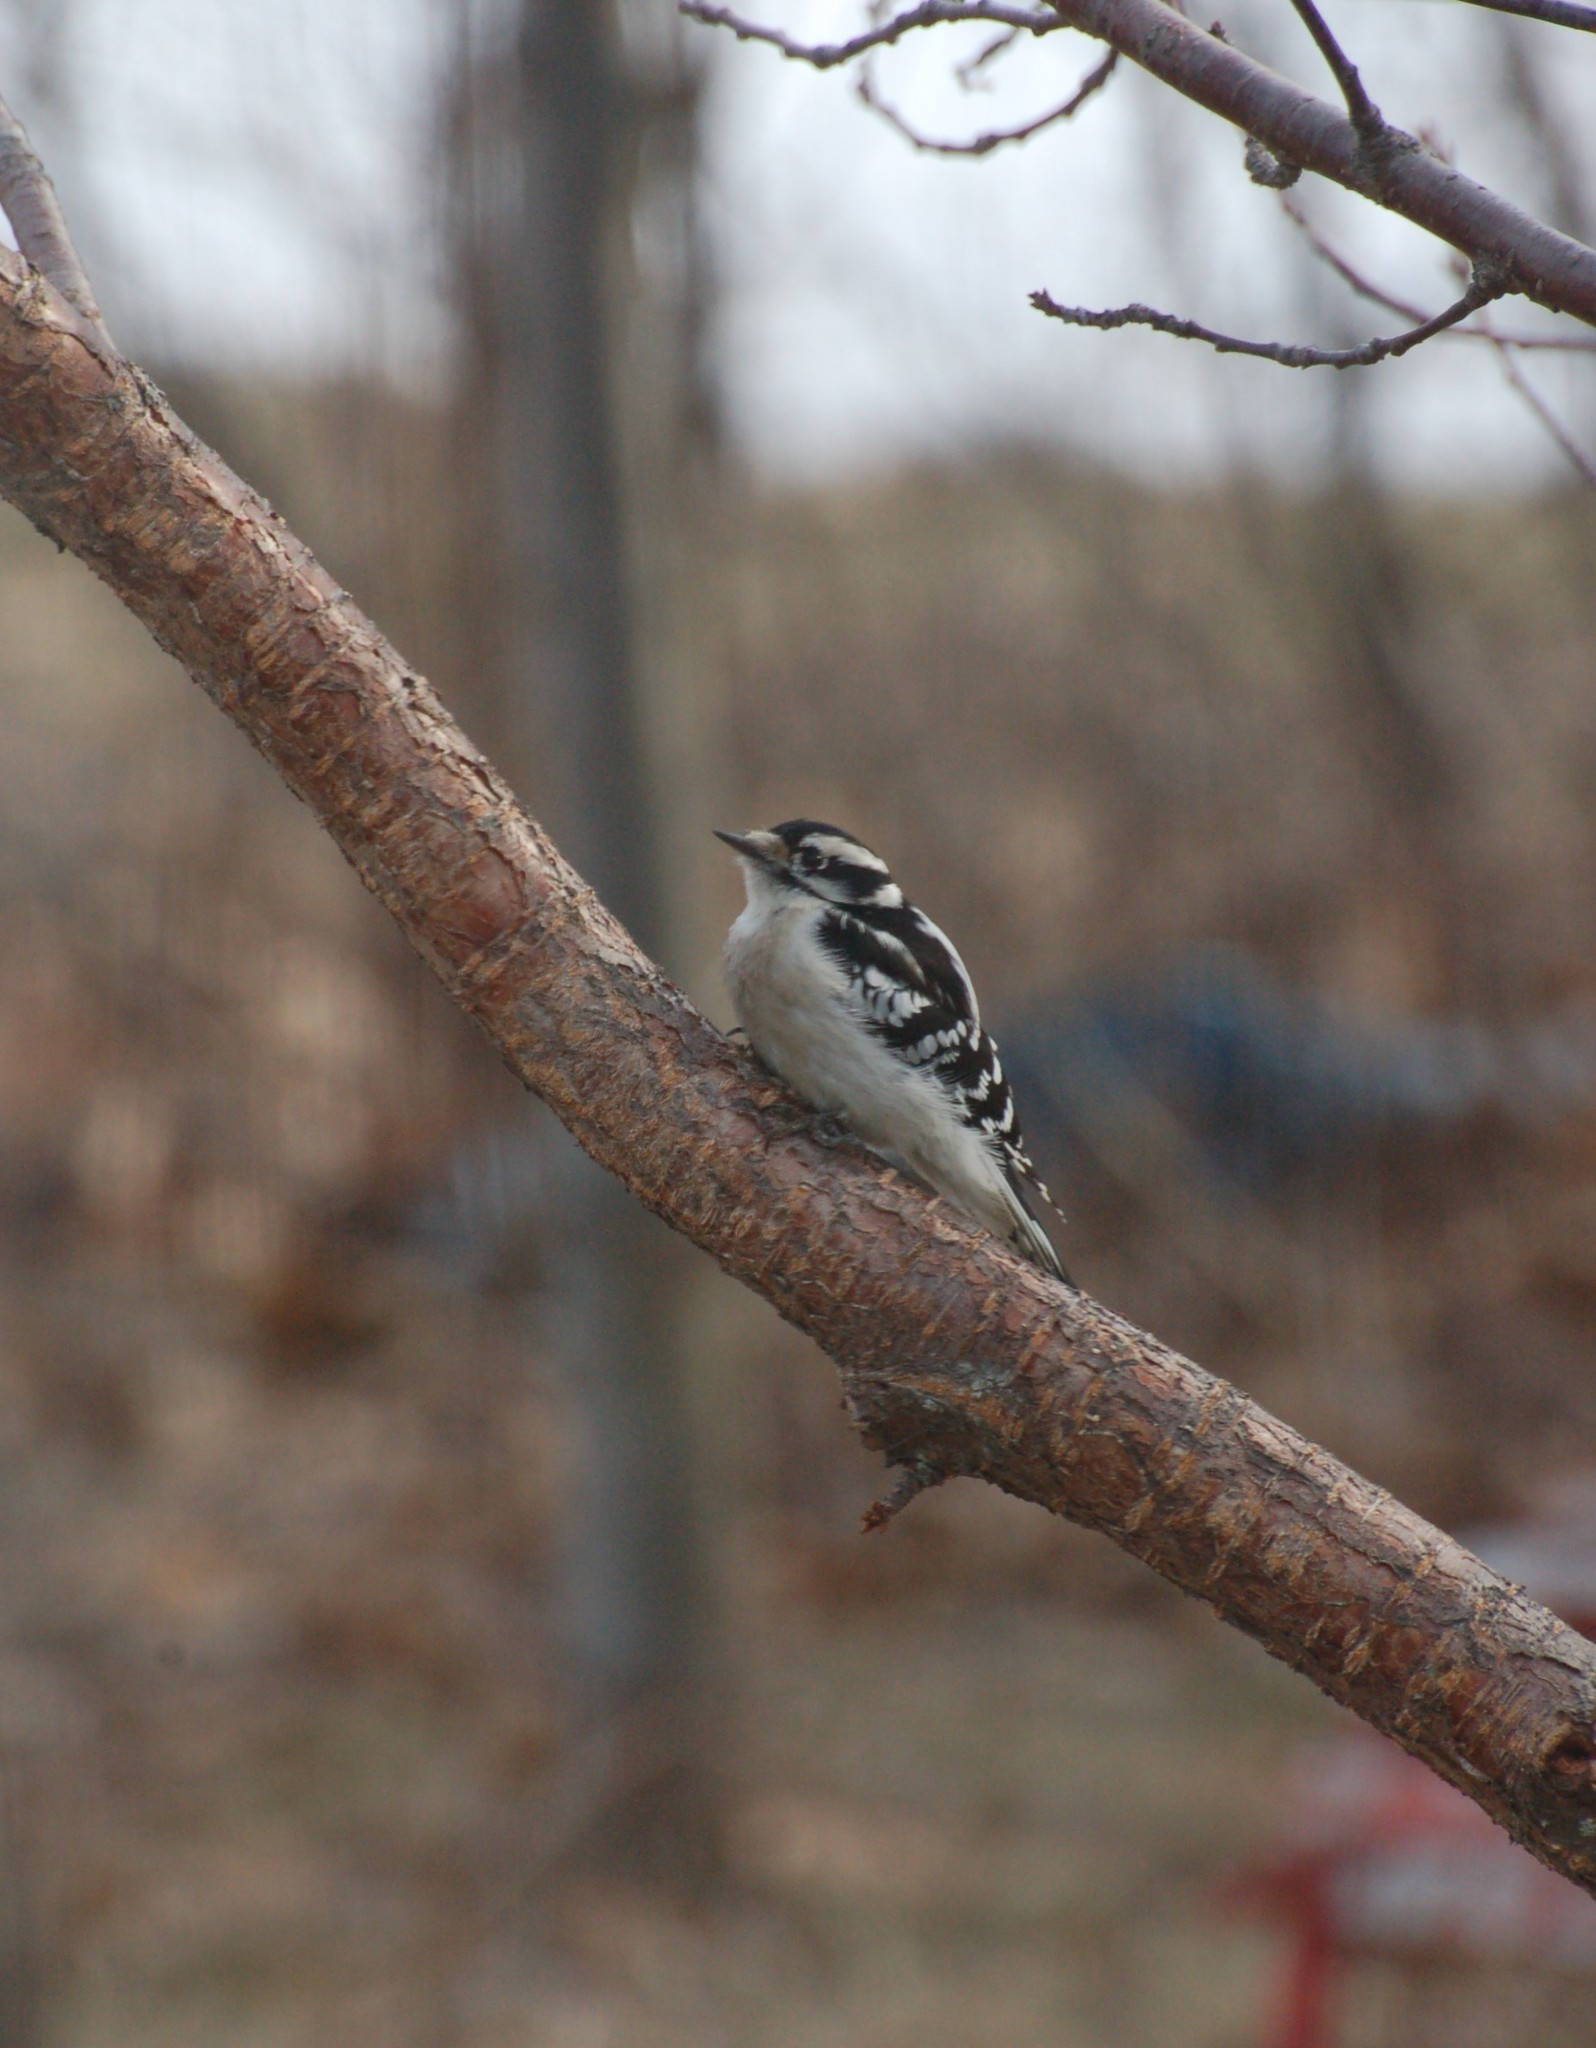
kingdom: Animalia
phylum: Chordata
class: Aves
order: Piciformes
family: Picidae
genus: Dryobates
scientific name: Dryobates pubescens
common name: Downy woodpecker
